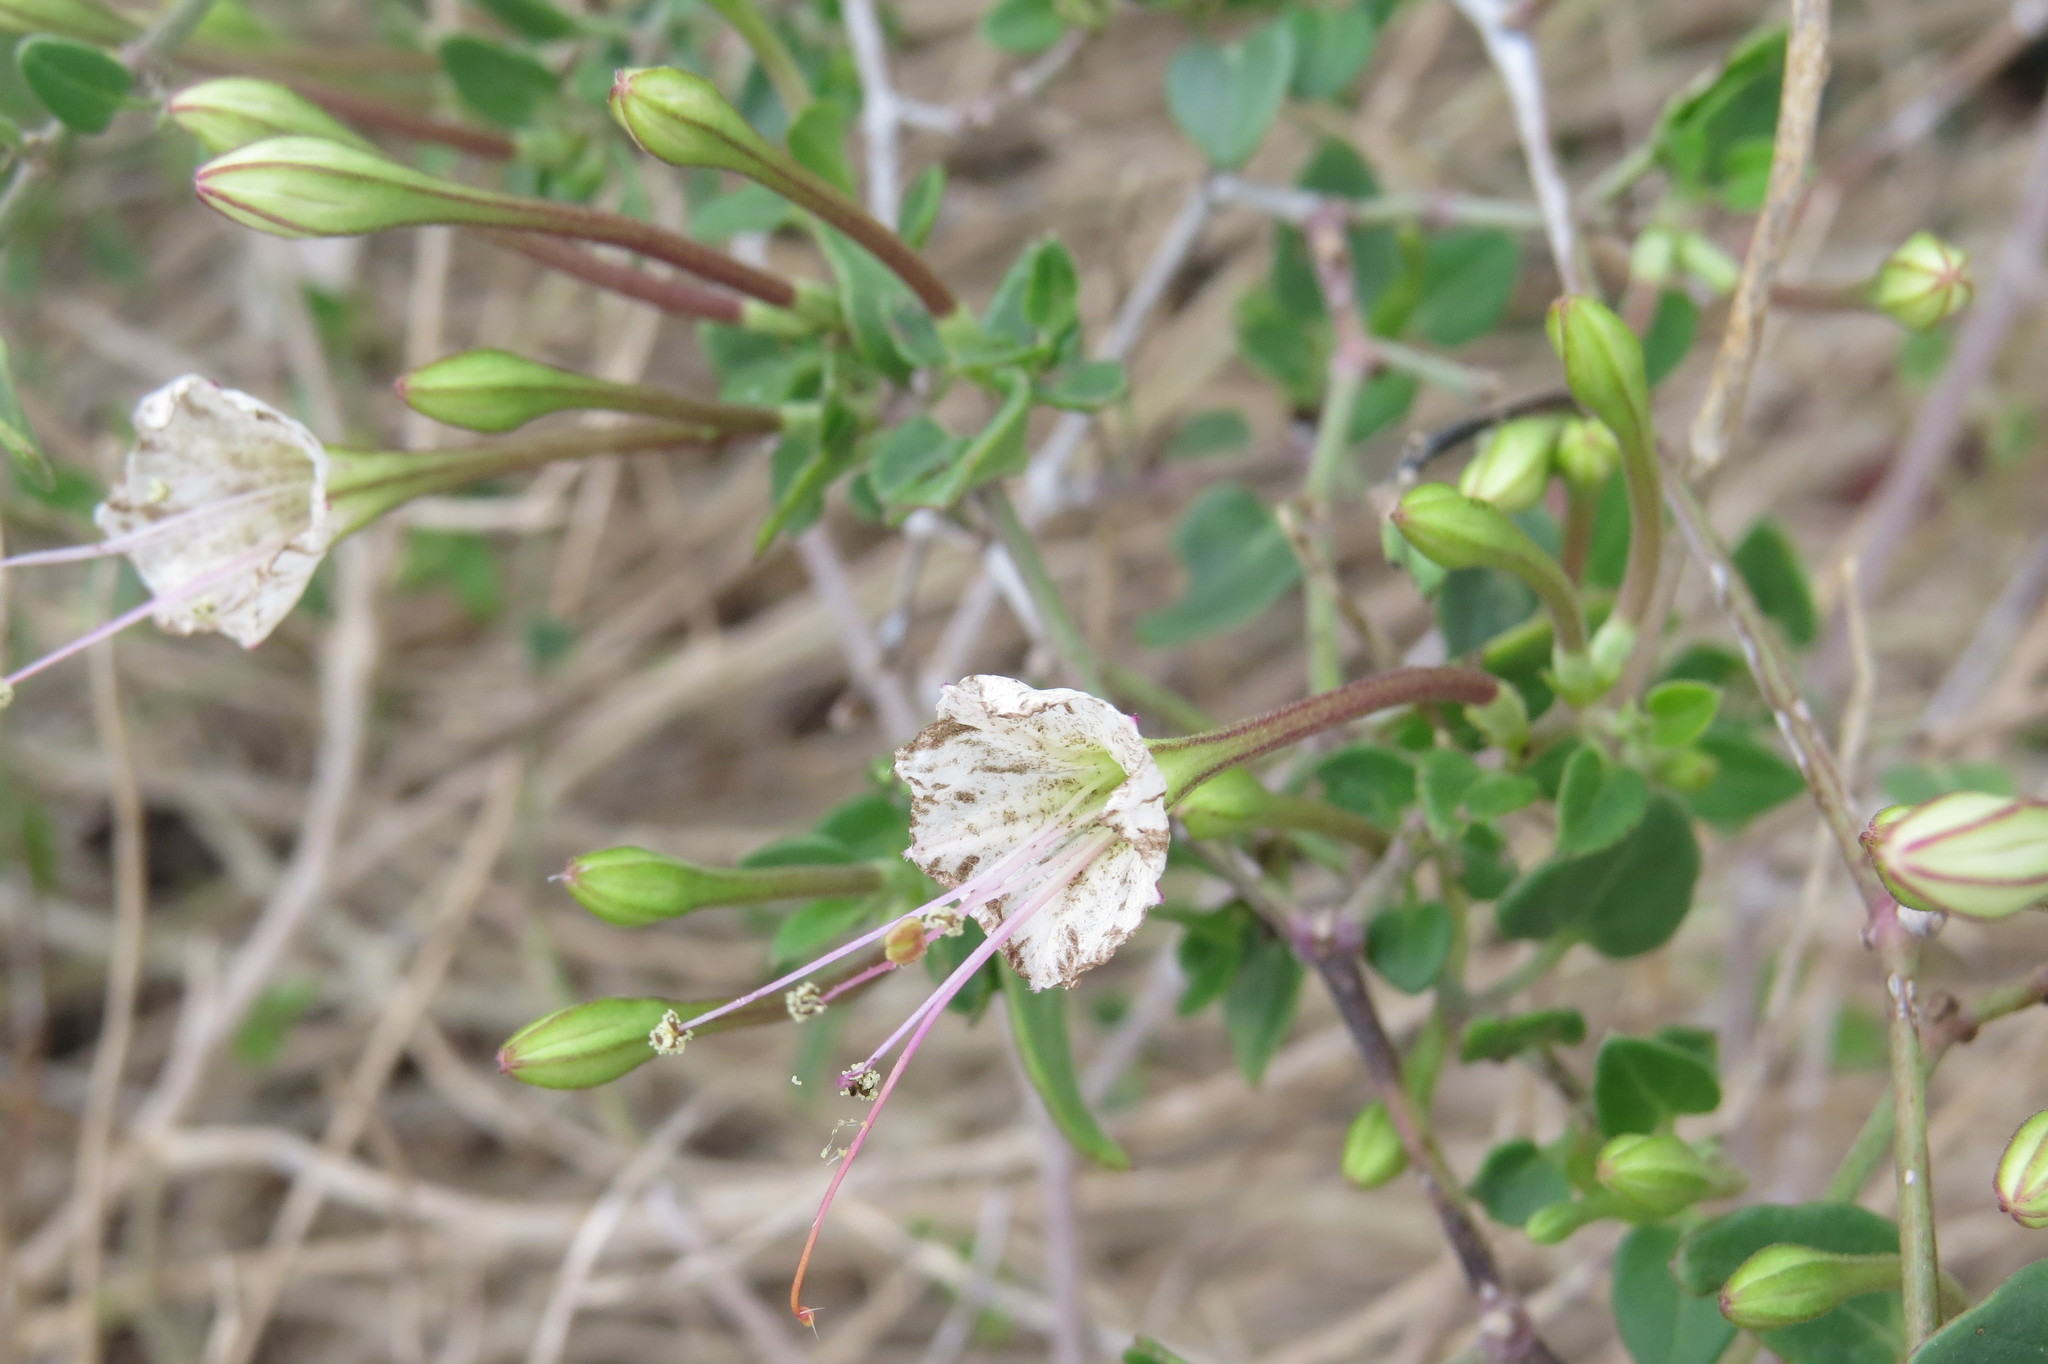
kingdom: Plantae
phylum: Tracheophyta
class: Magnoliopsida
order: Caryophyllales
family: Nyctaginaceae
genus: Acleisanthes
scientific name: Acleisanthes obtusa
